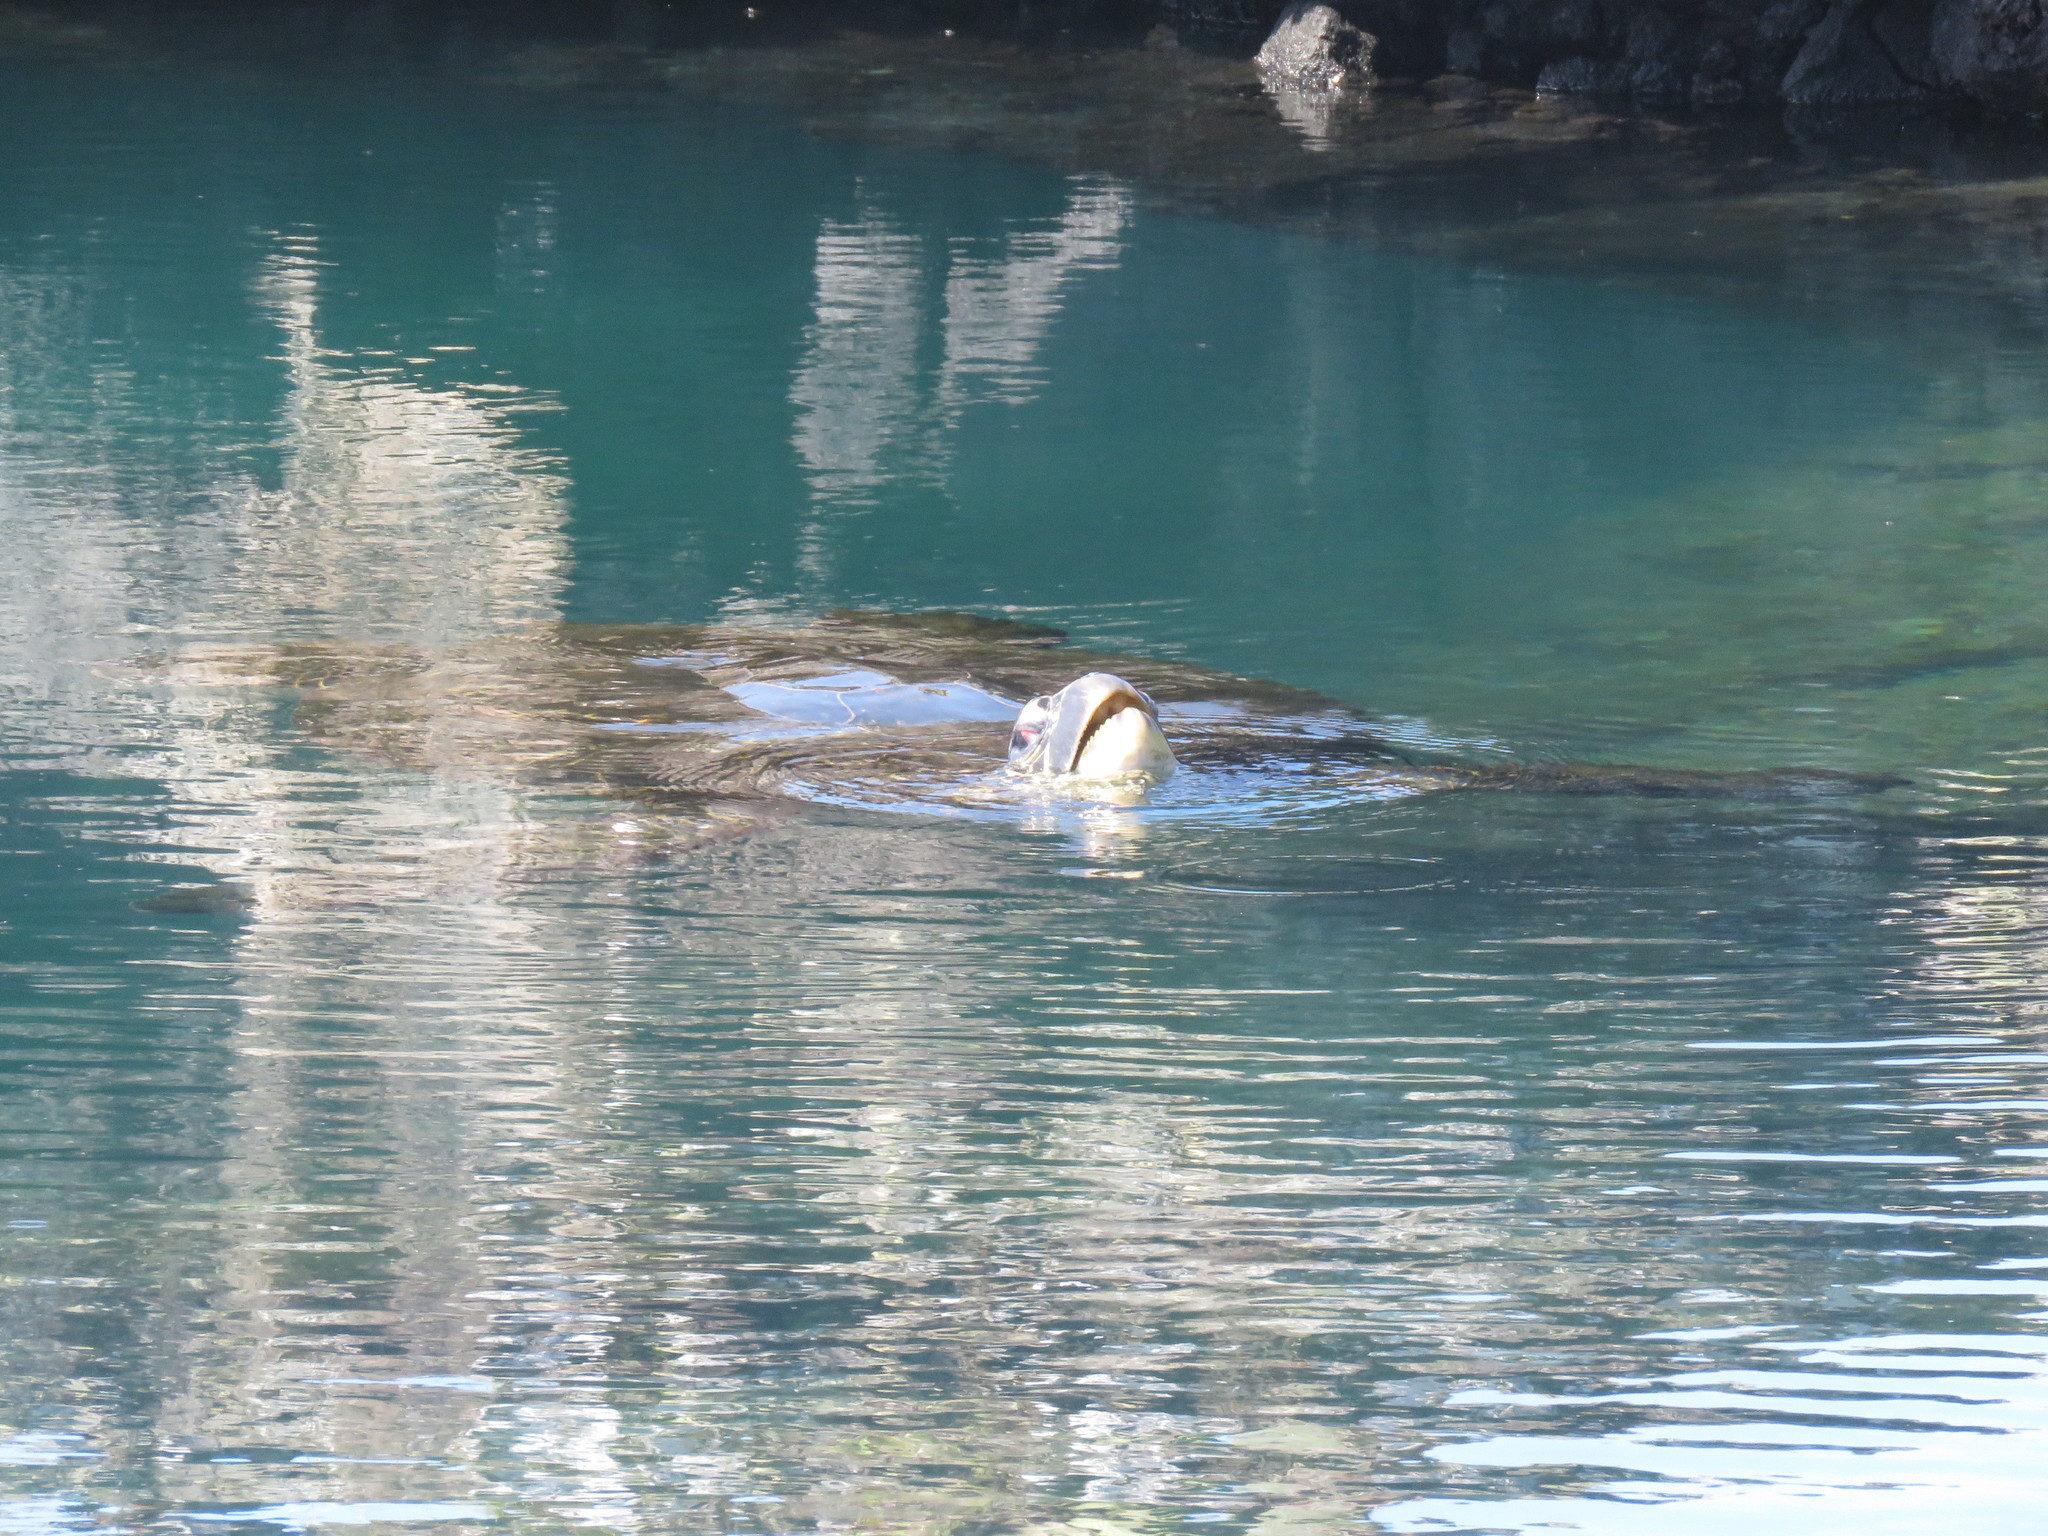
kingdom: Animalia
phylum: Chordata
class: Testudines
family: Cheloniidae
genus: Chelonia
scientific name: Chelonia mydas
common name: Green turtle
